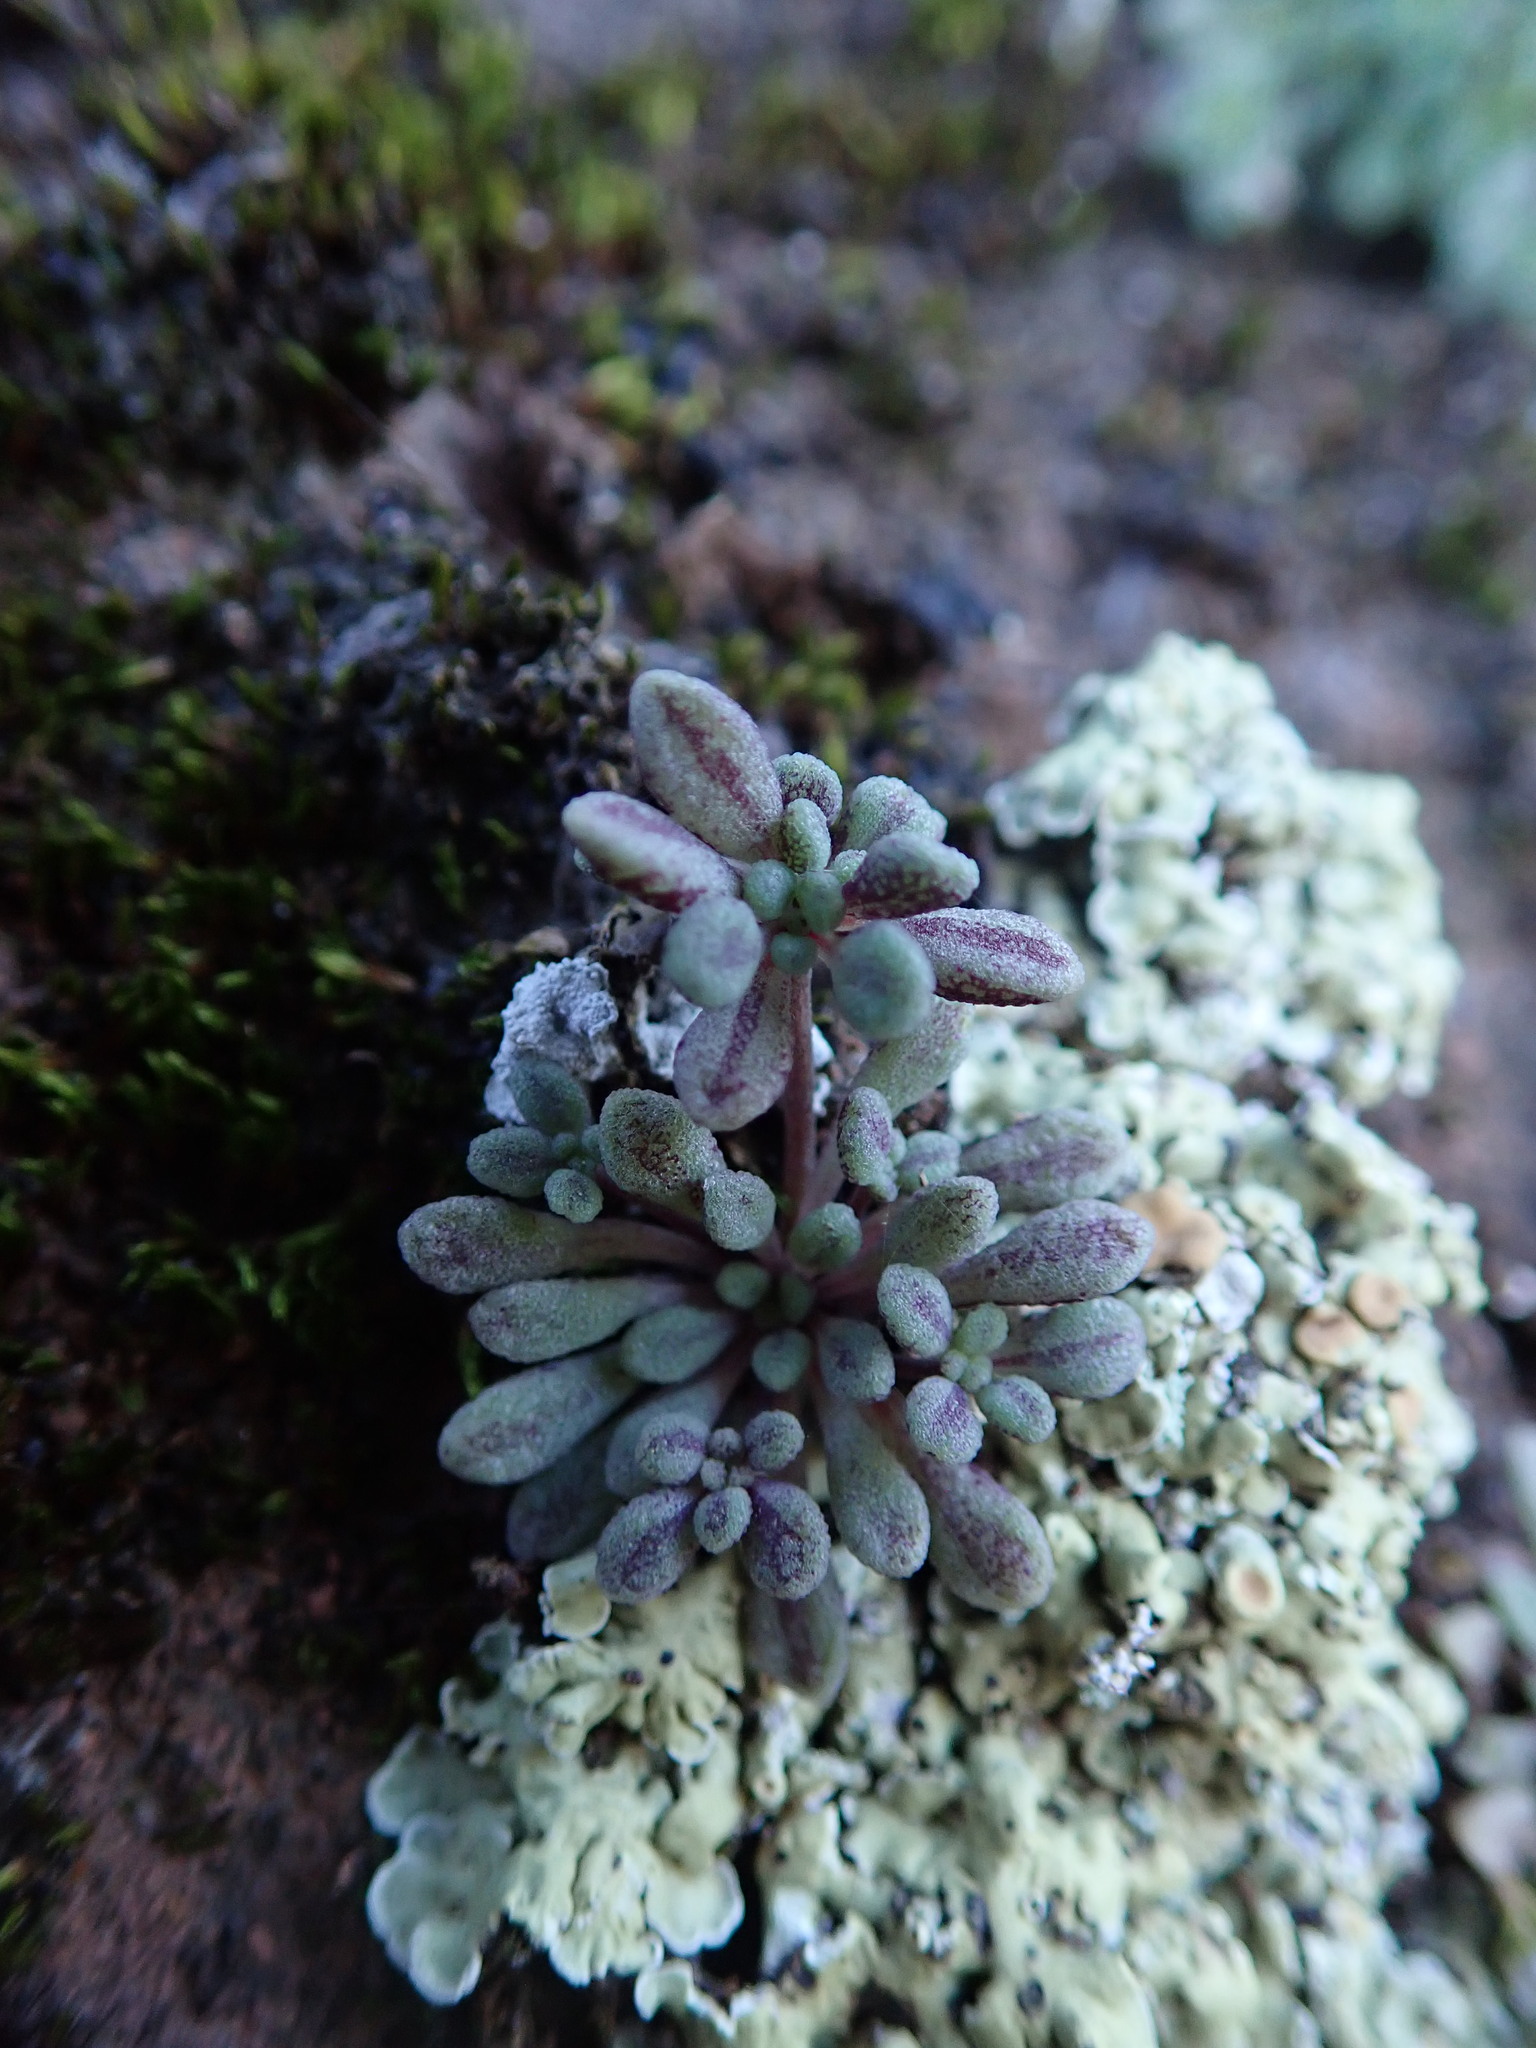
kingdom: Plantae
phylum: Tracheophyta
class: Magnoliopsida
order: Saxifragales
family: Crassulaceae
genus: Monanthes
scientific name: Monanthes brachycaulos
